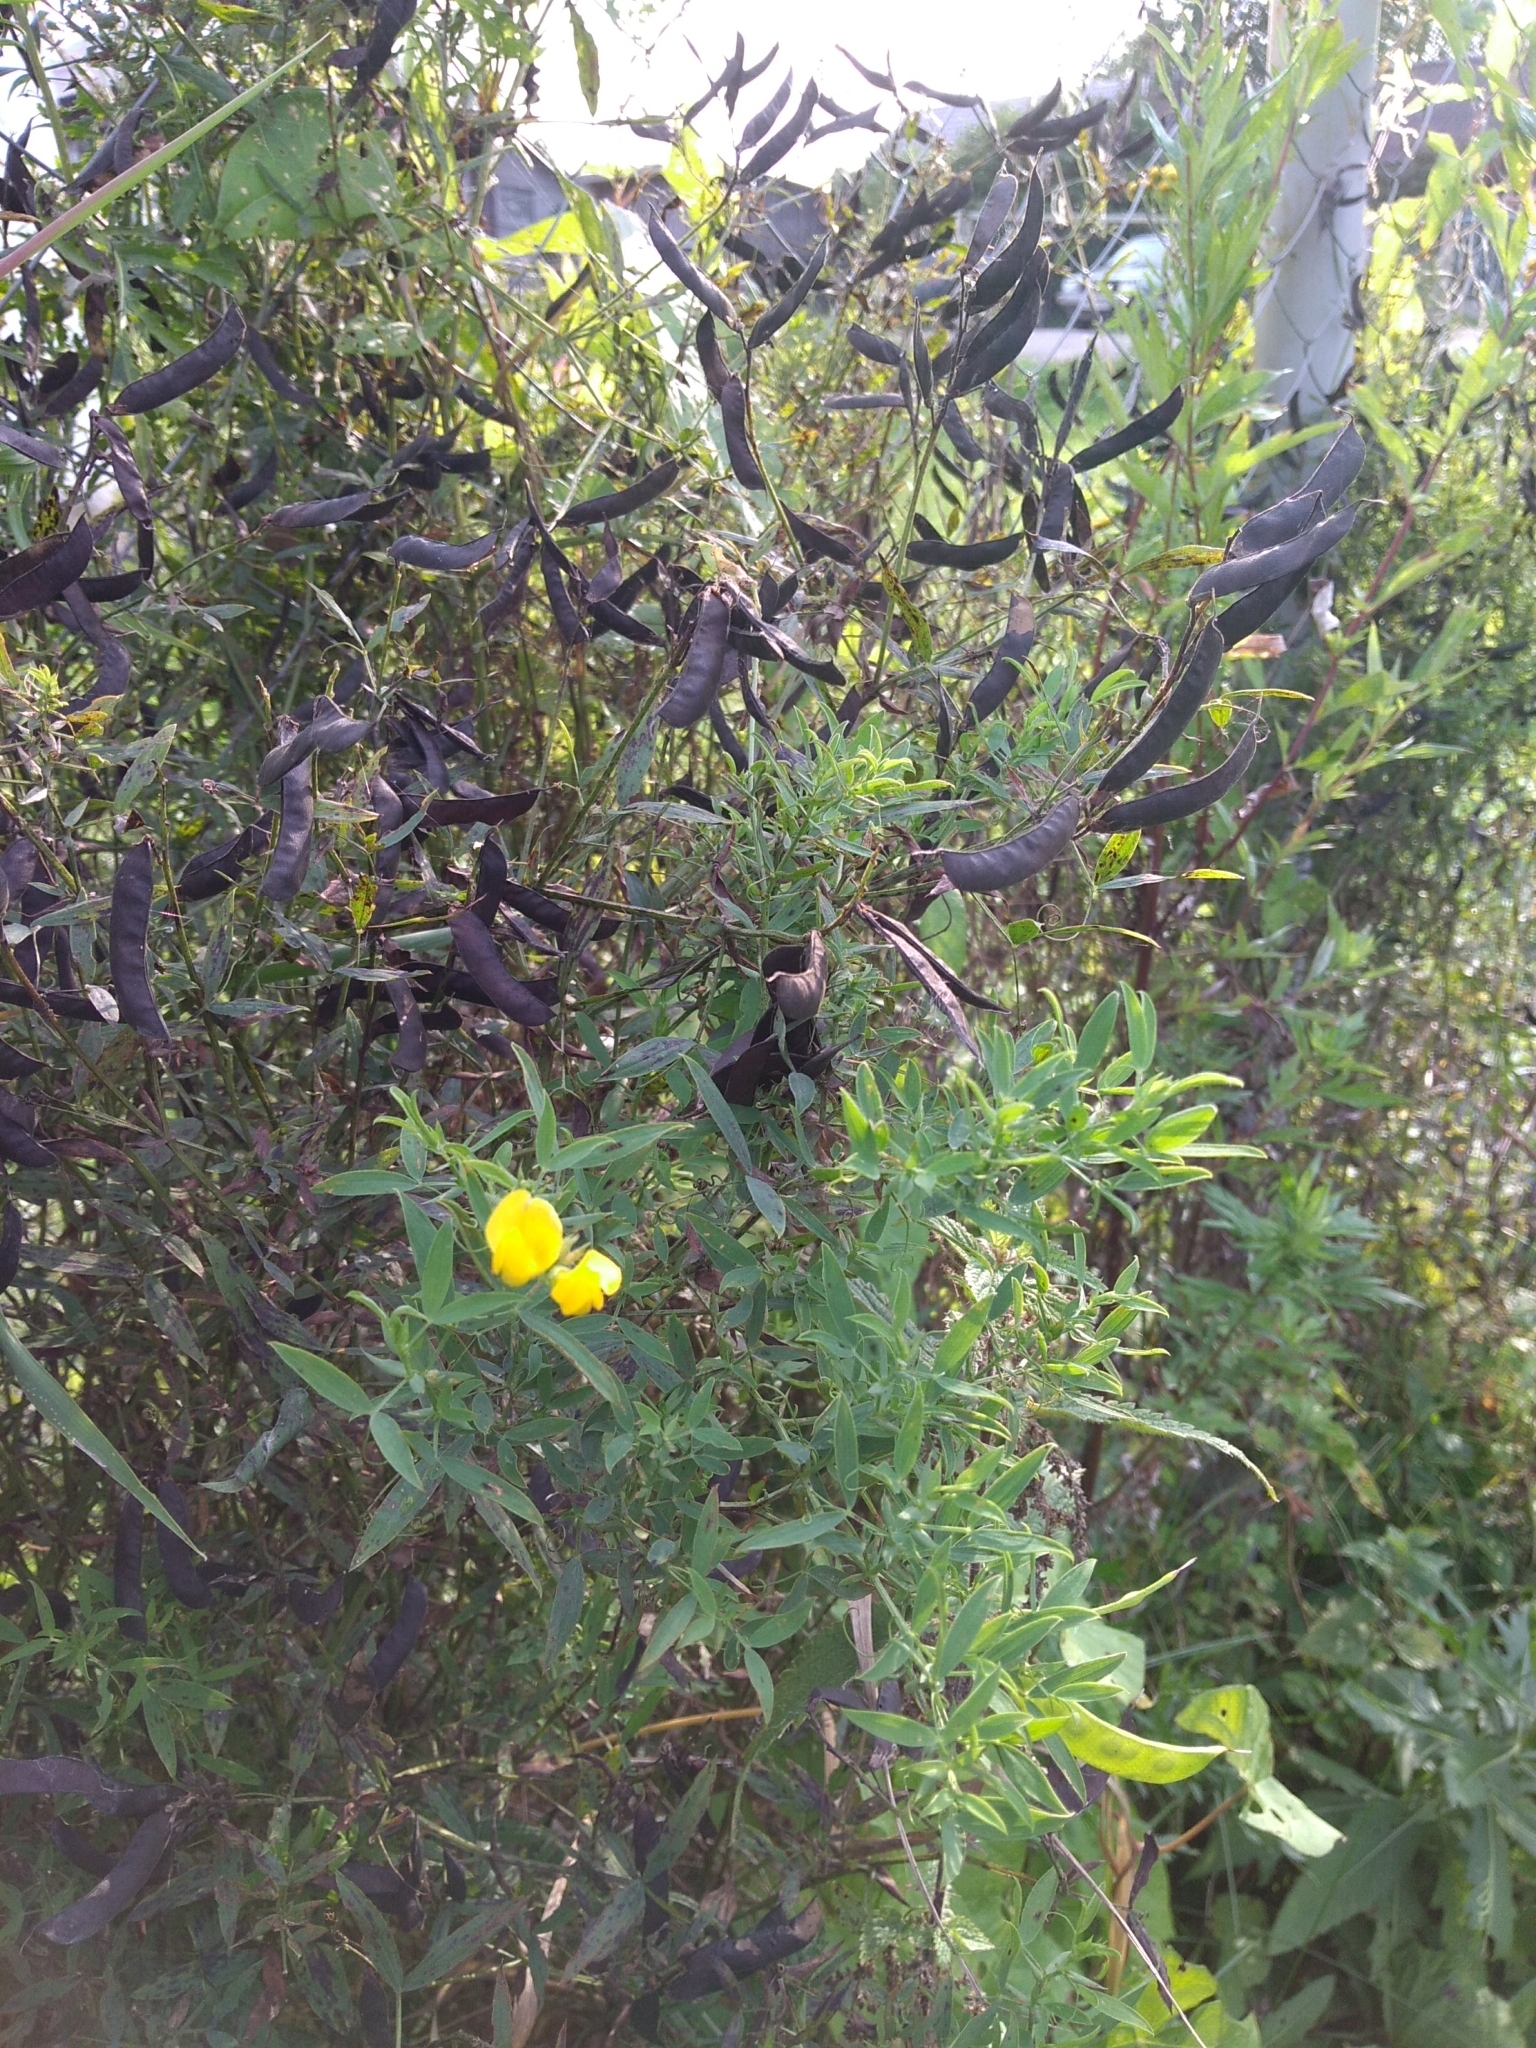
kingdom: Plantae
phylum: Tracheophyta
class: Magnoliopsida
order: Fabales
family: Fabaceae
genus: Lathyrus
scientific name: Lathyrus pratensis
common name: Meadow vetchling
